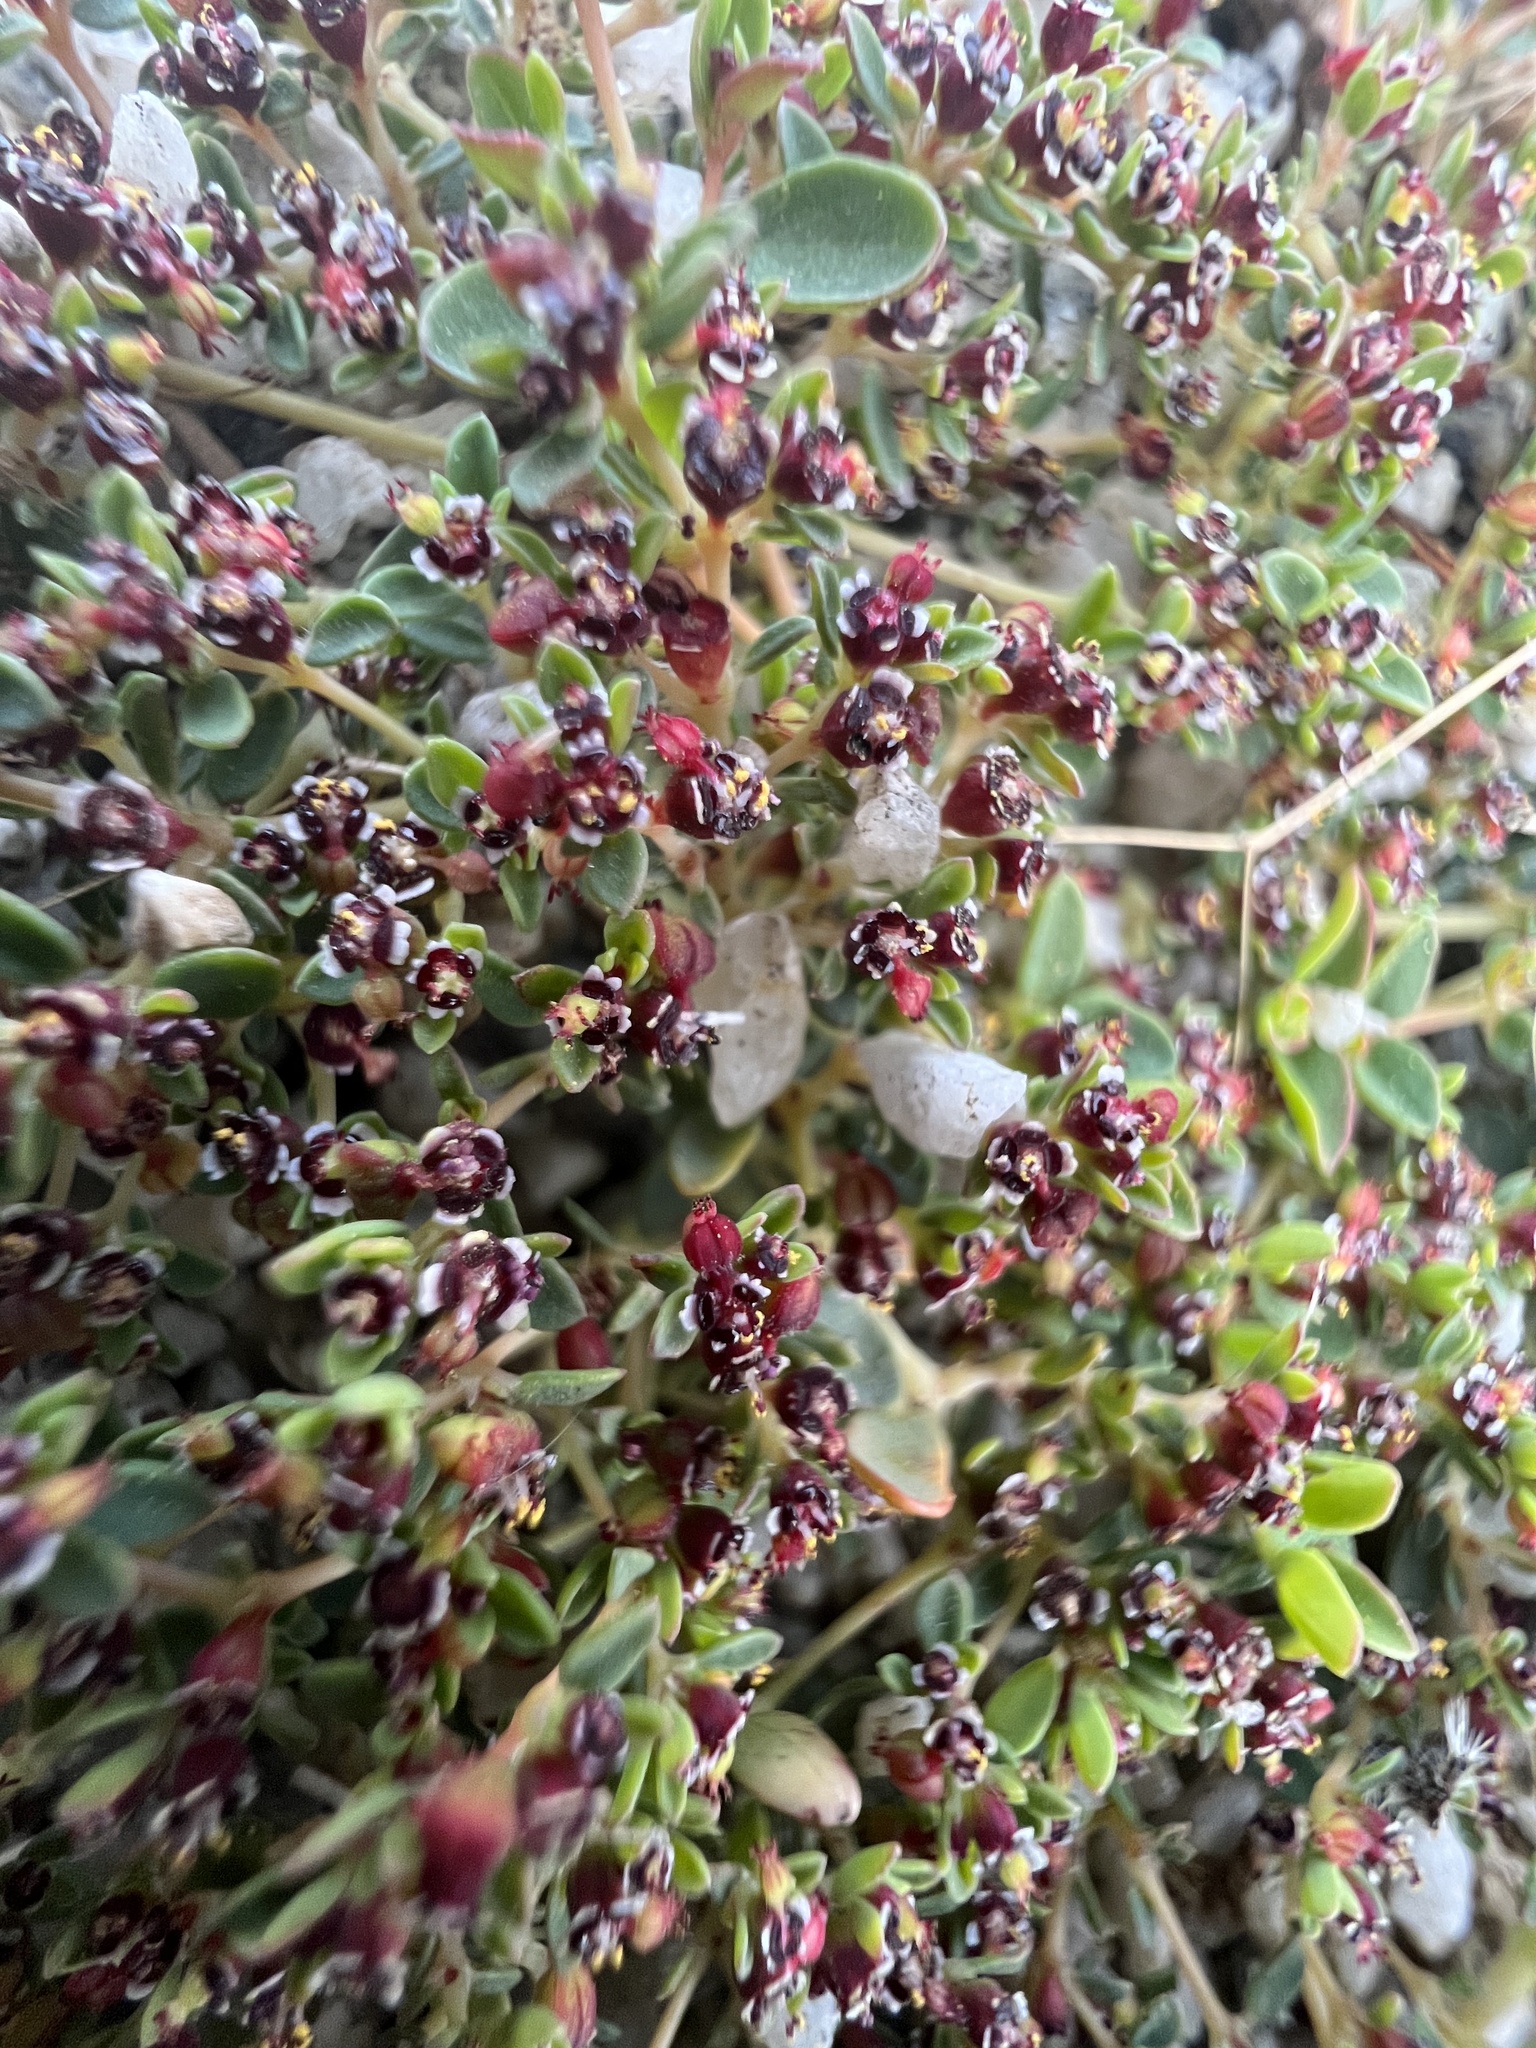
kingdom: Plantae
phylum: Tracheophyta
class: Magnoliopsida
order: Malpighiales
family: Euphorbiaceae
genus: Euphorbia
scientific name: Euphorbia polycarpa
